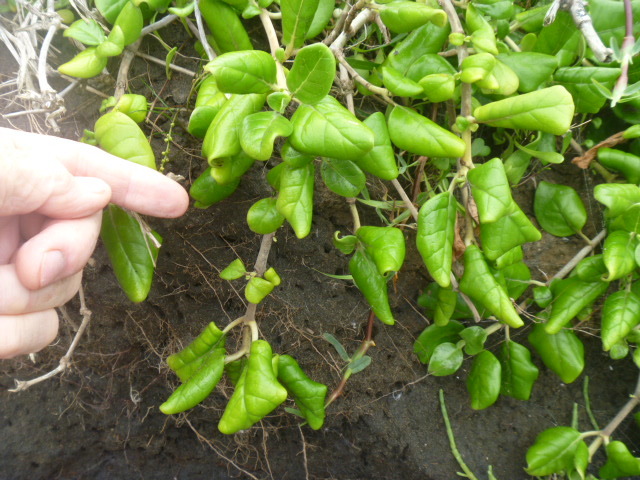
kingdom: Plantae
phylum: Tracheophyta
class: Magnoliopsida
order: Gentianales
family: Rubiaceae
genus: Coprosma
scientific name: Coprosma repens
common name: Tree bedstraw
